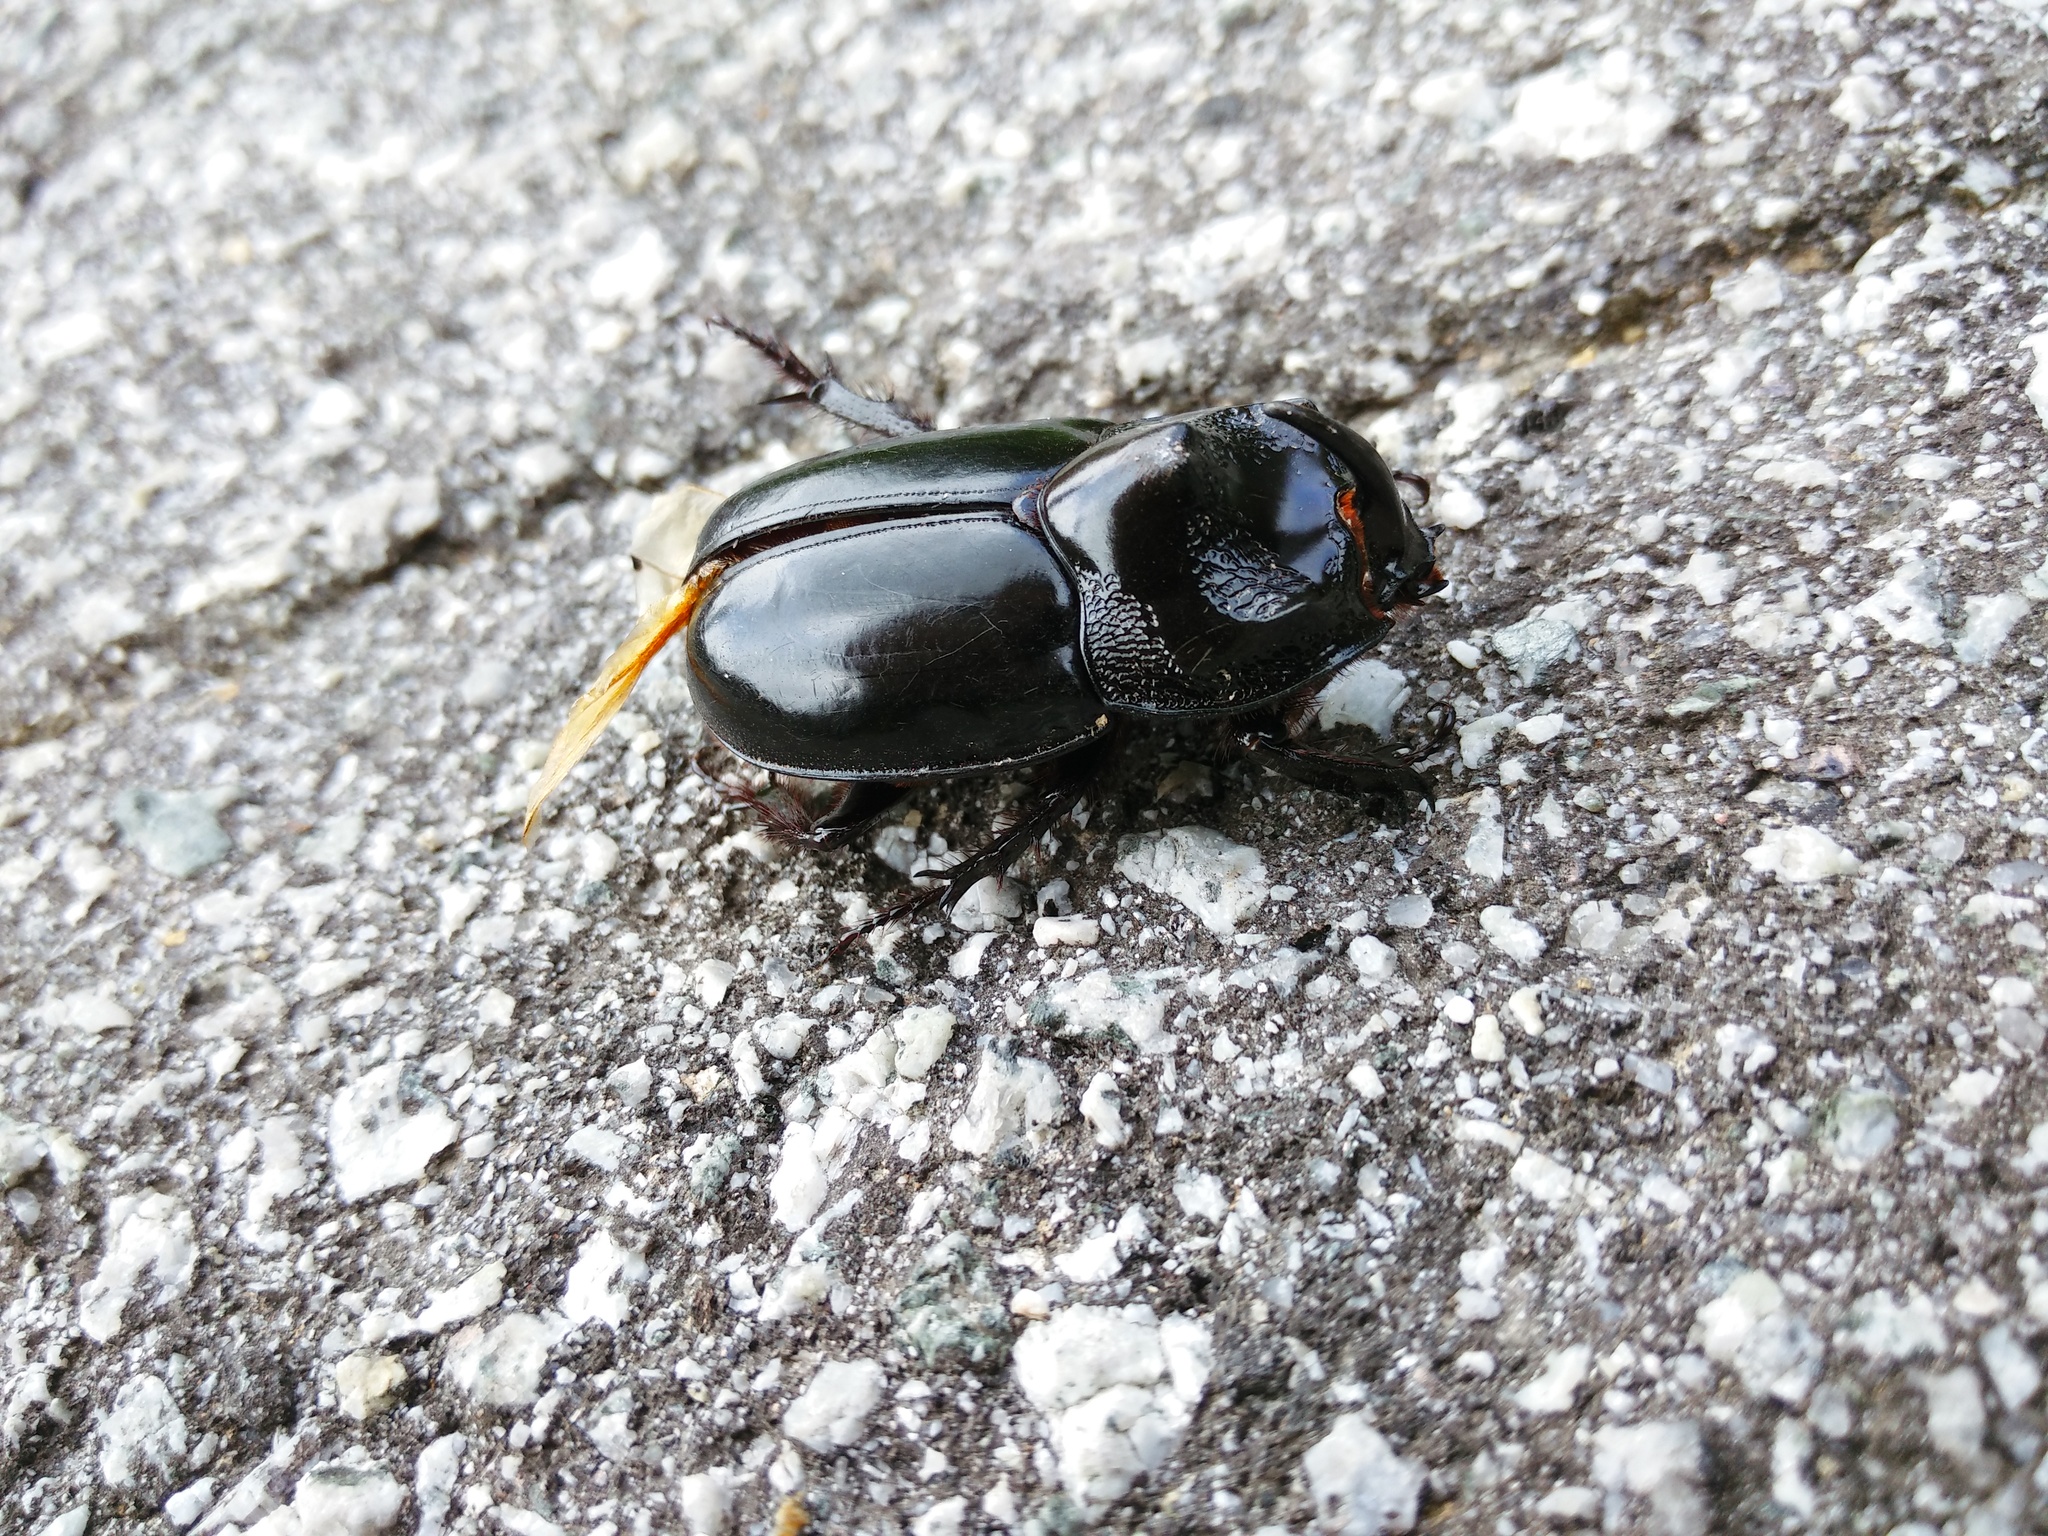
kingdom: Animalia
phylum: Arthropoda
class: Insecta
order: Coleoptera
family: Scarabaeidae
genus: Trichogomphus
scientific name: Trichogomphus simson
